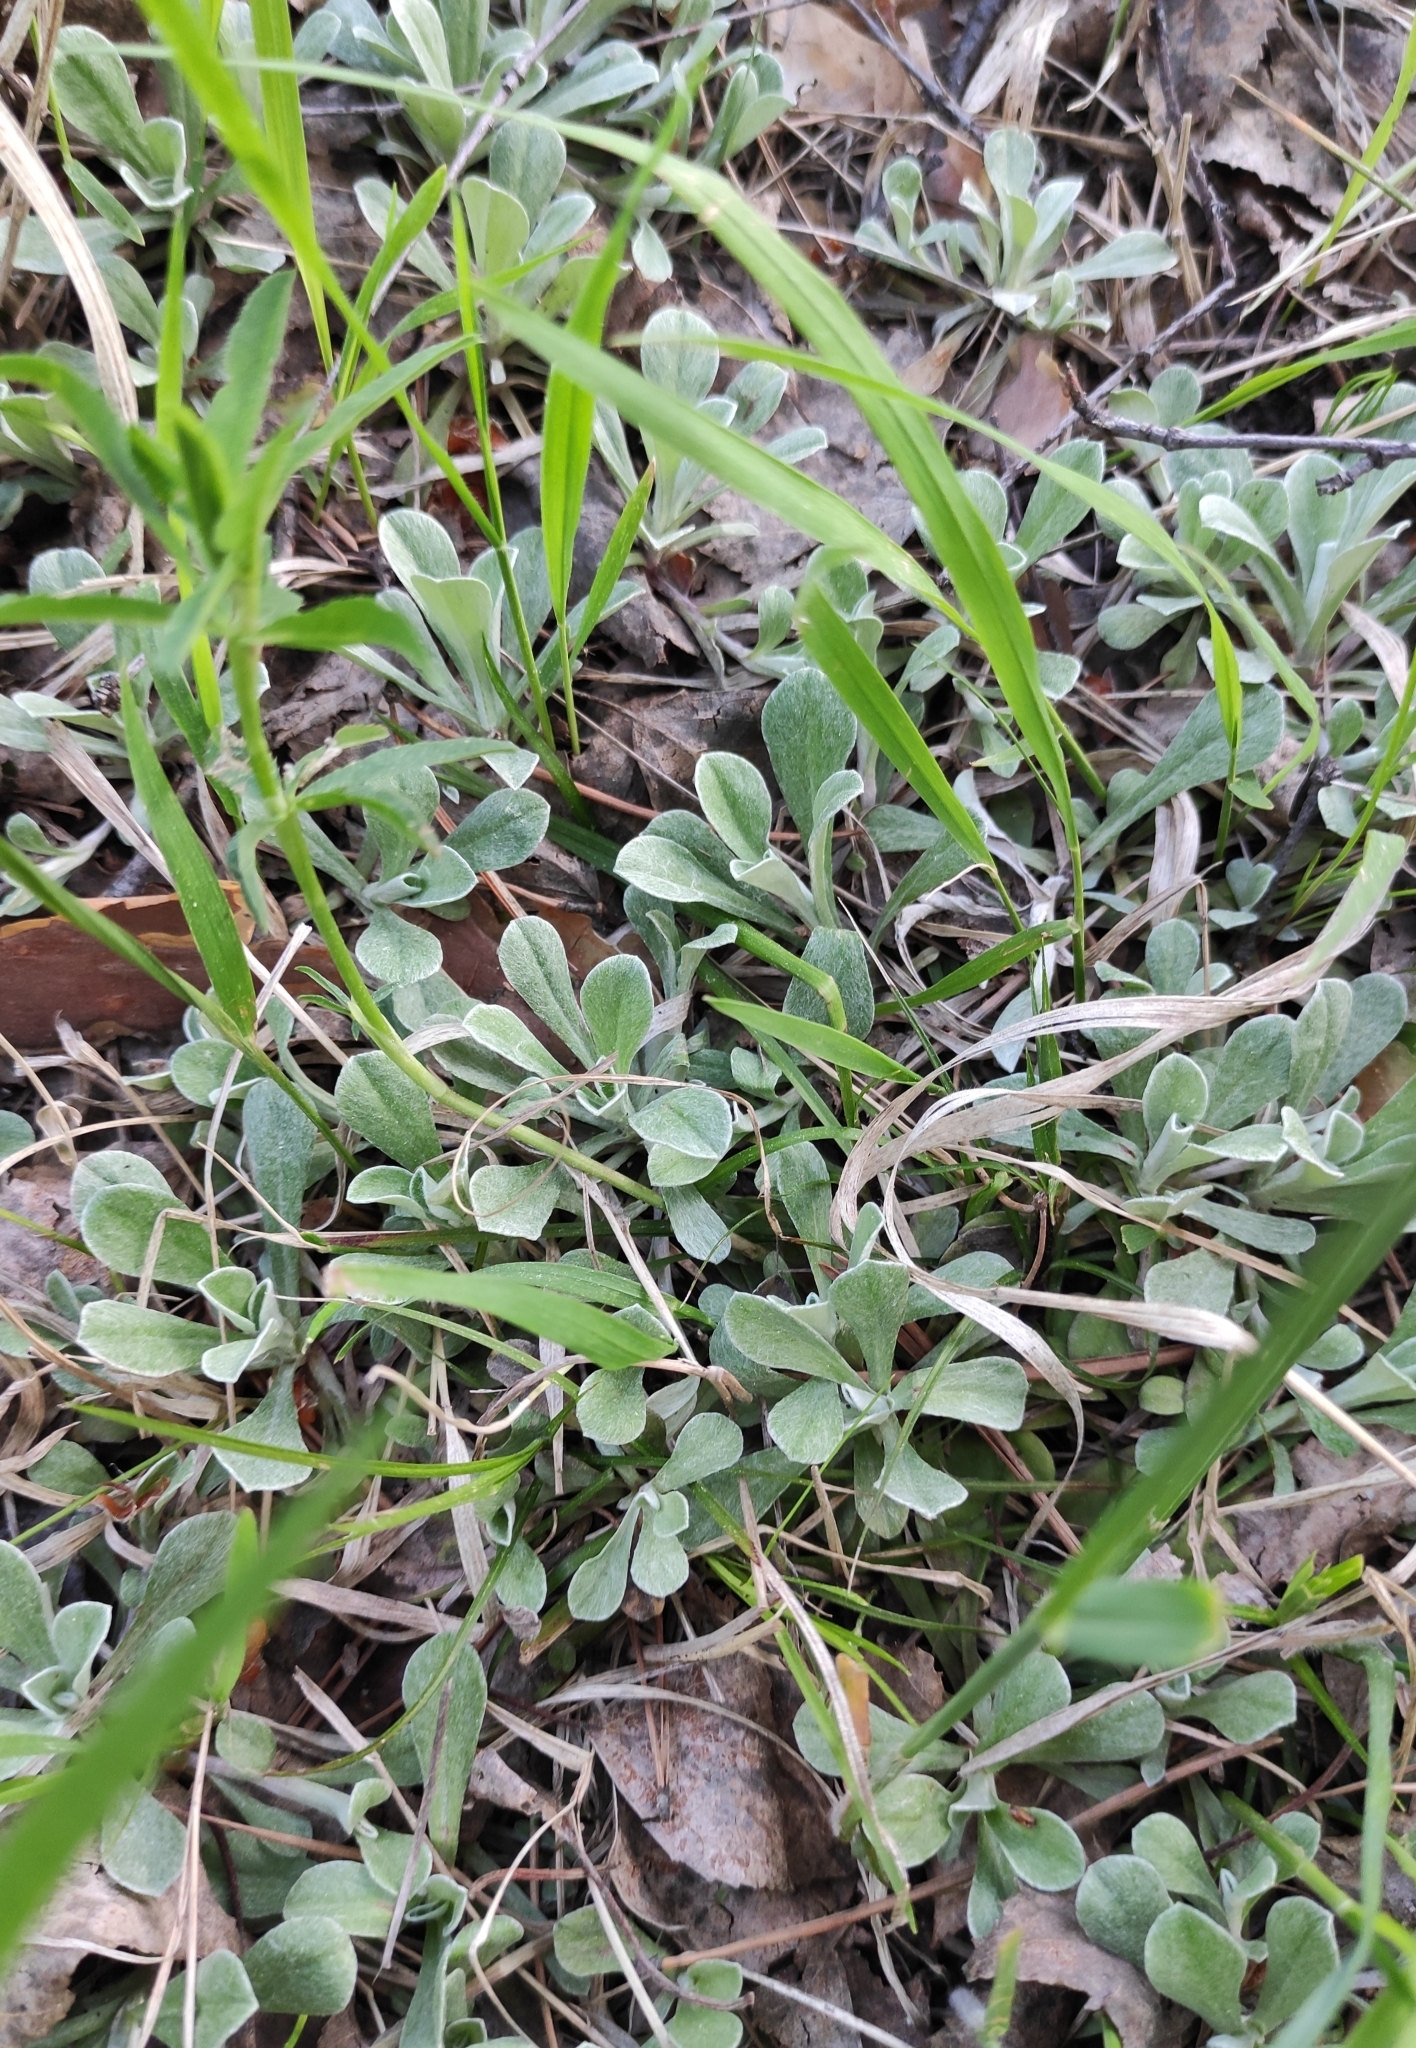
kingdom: Plantae
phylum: Tracheophyta
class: Magnoliopsida
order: Asterales
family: Asteraceae
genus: Antennaria
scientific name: Antennaria dioica
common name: Mountain everlasting
